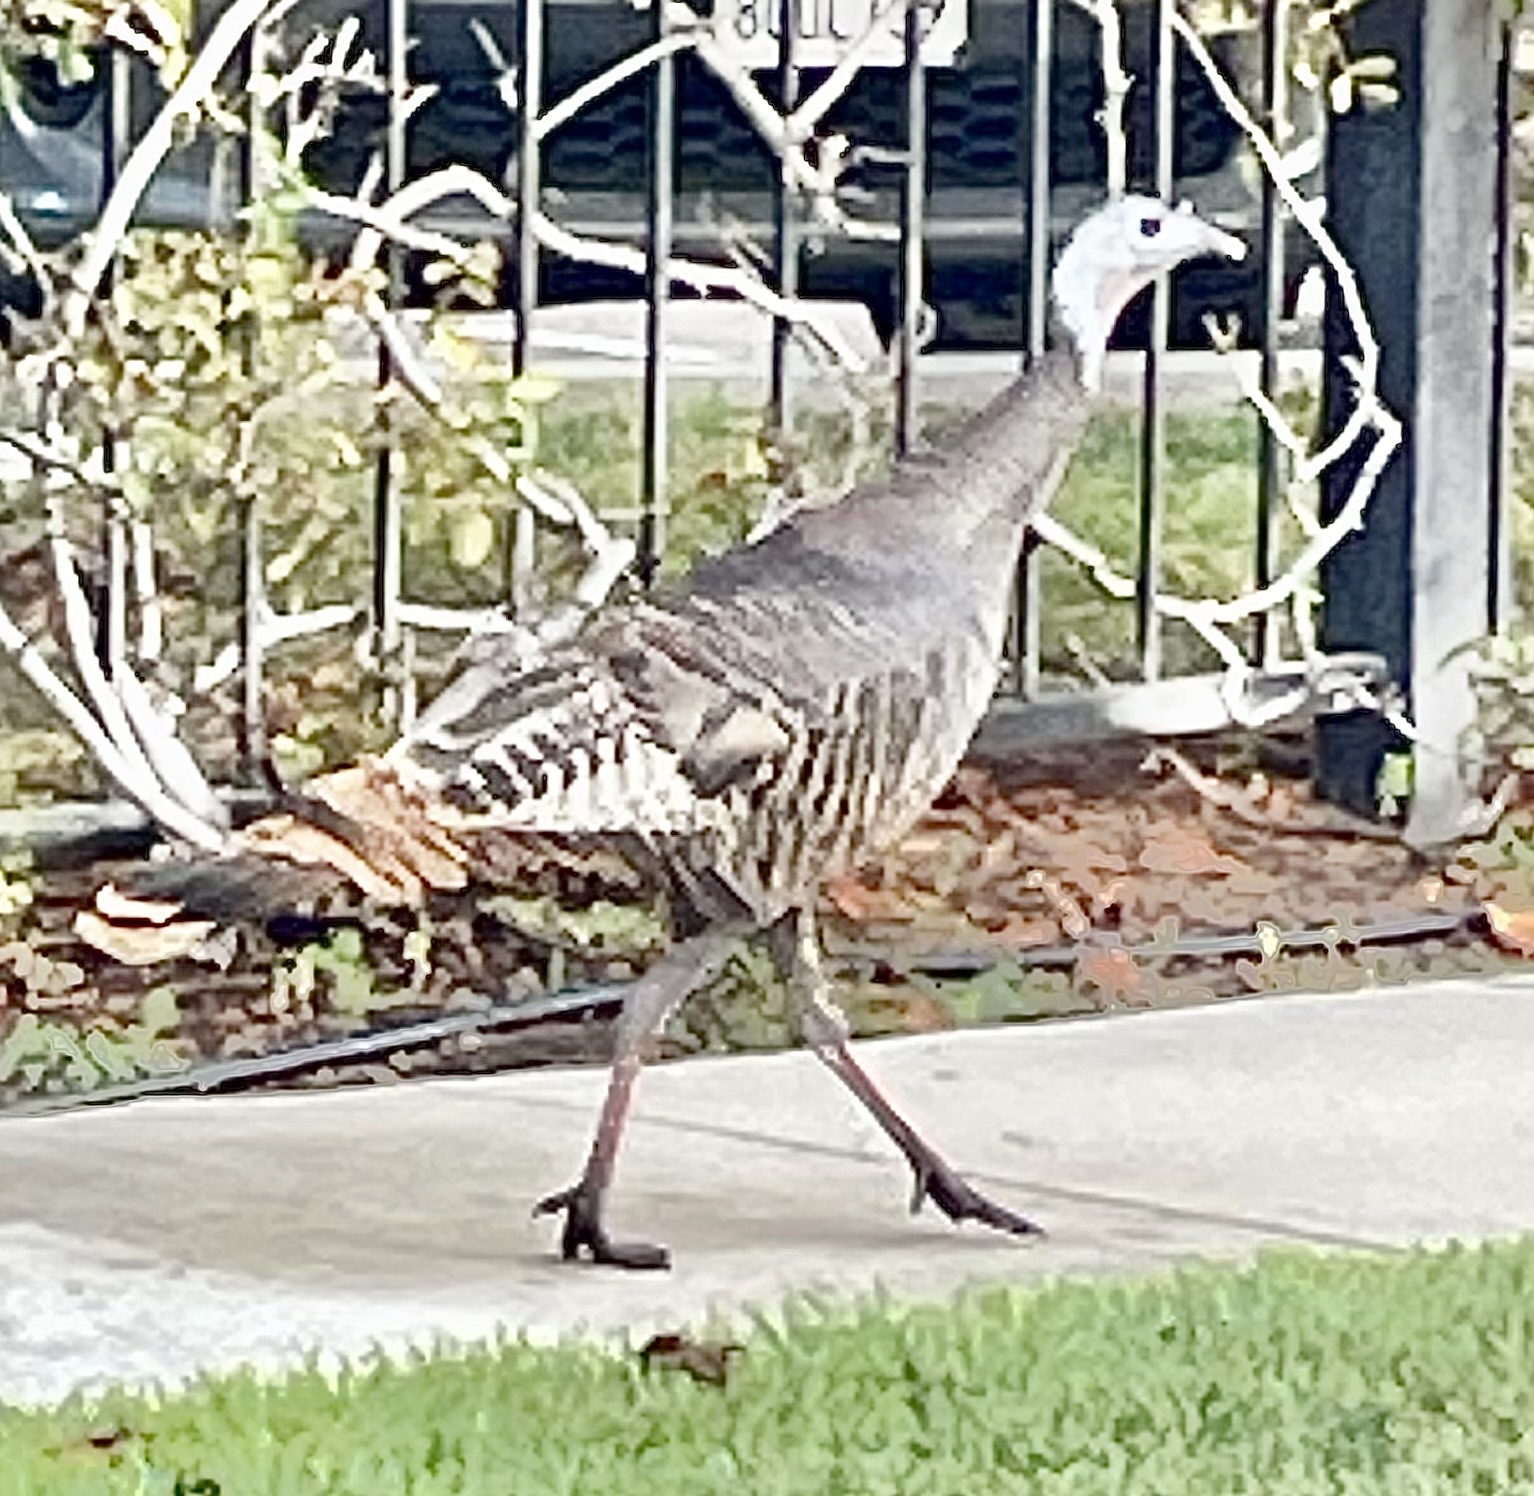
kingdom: Animalia
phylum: Chordata
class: Aves
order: Galliformes
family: Phasianidae
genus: Meleagris
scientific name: Meleagris gallopavo
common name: Wild turkey
